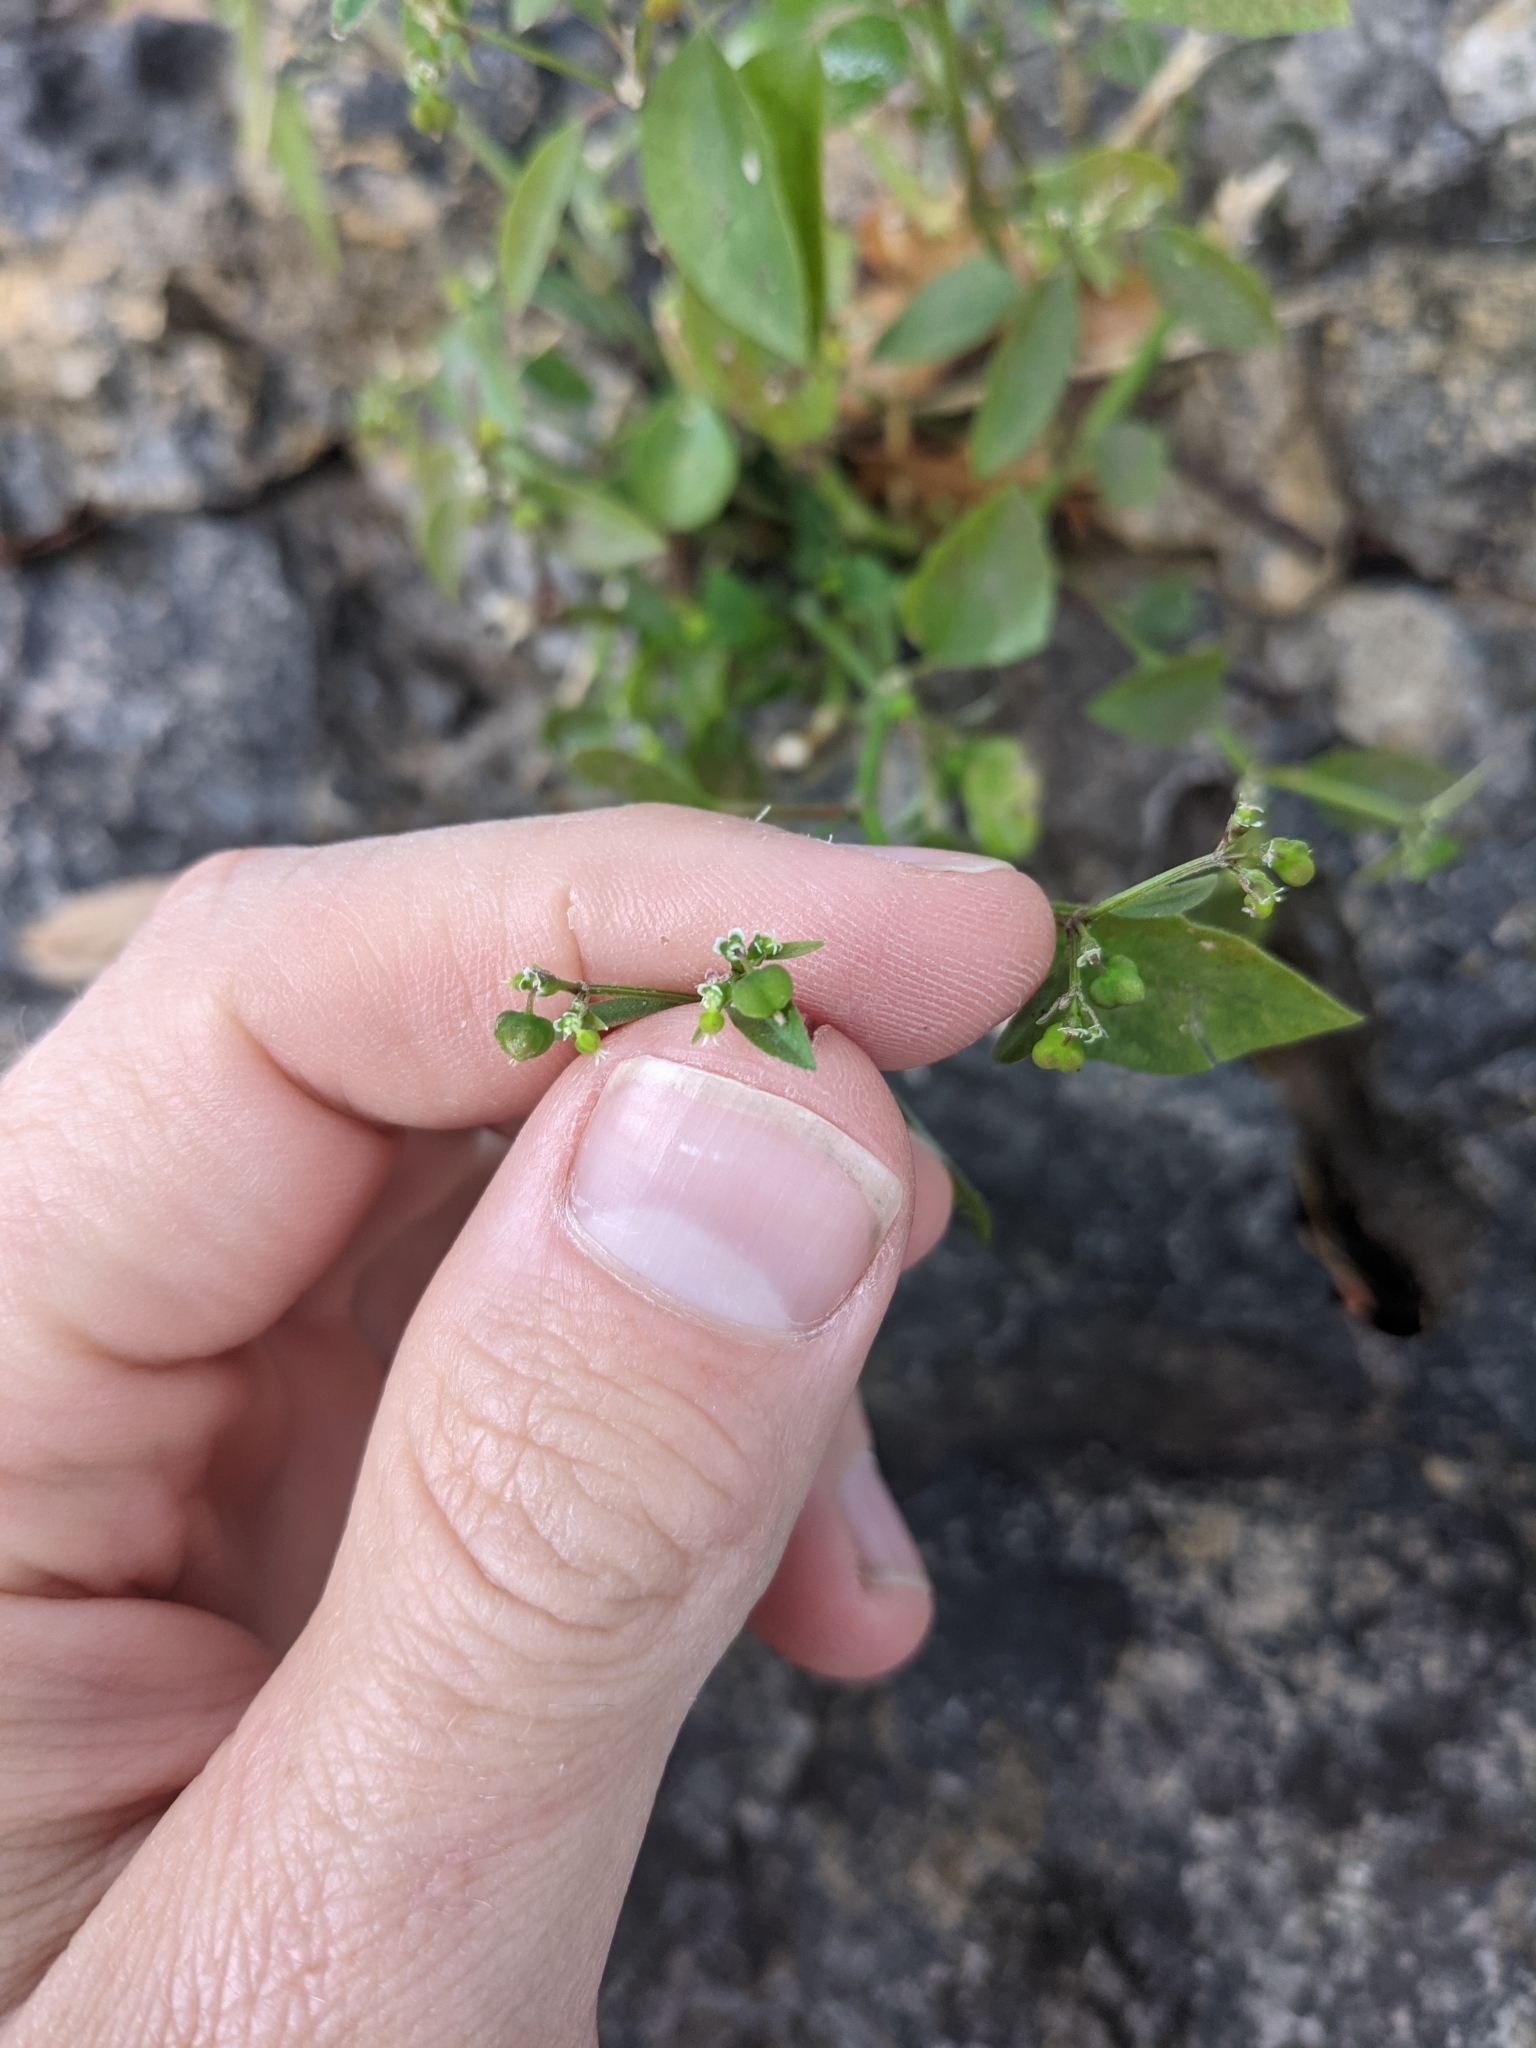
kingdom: Plantae
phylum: Tracheophyta
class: Magnoliopsida
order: Malpighiales
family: Euphorbiaceae
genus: Euphorbia
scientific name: Euphorbia graminea
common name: Grassleaf spurge
